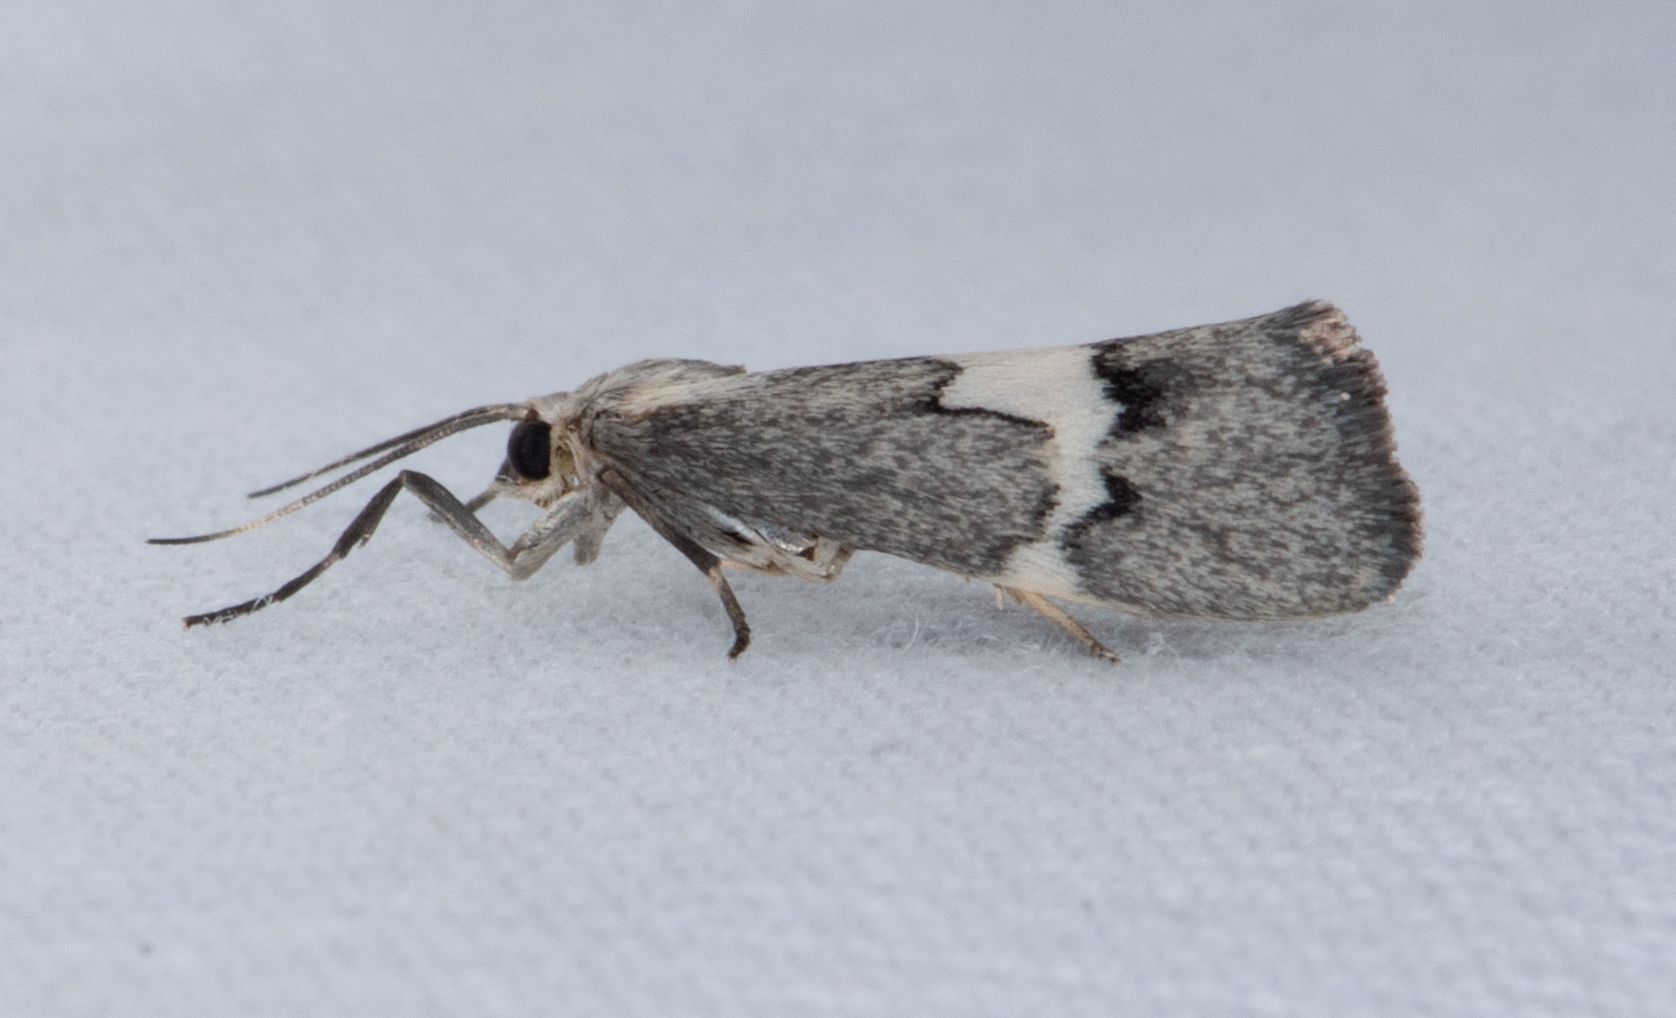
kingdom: Animalia
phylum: Arthropoda
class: Insecta
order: Lepidoptera
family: Erebidae
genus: Cisthene
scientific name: Cisthene deserta
